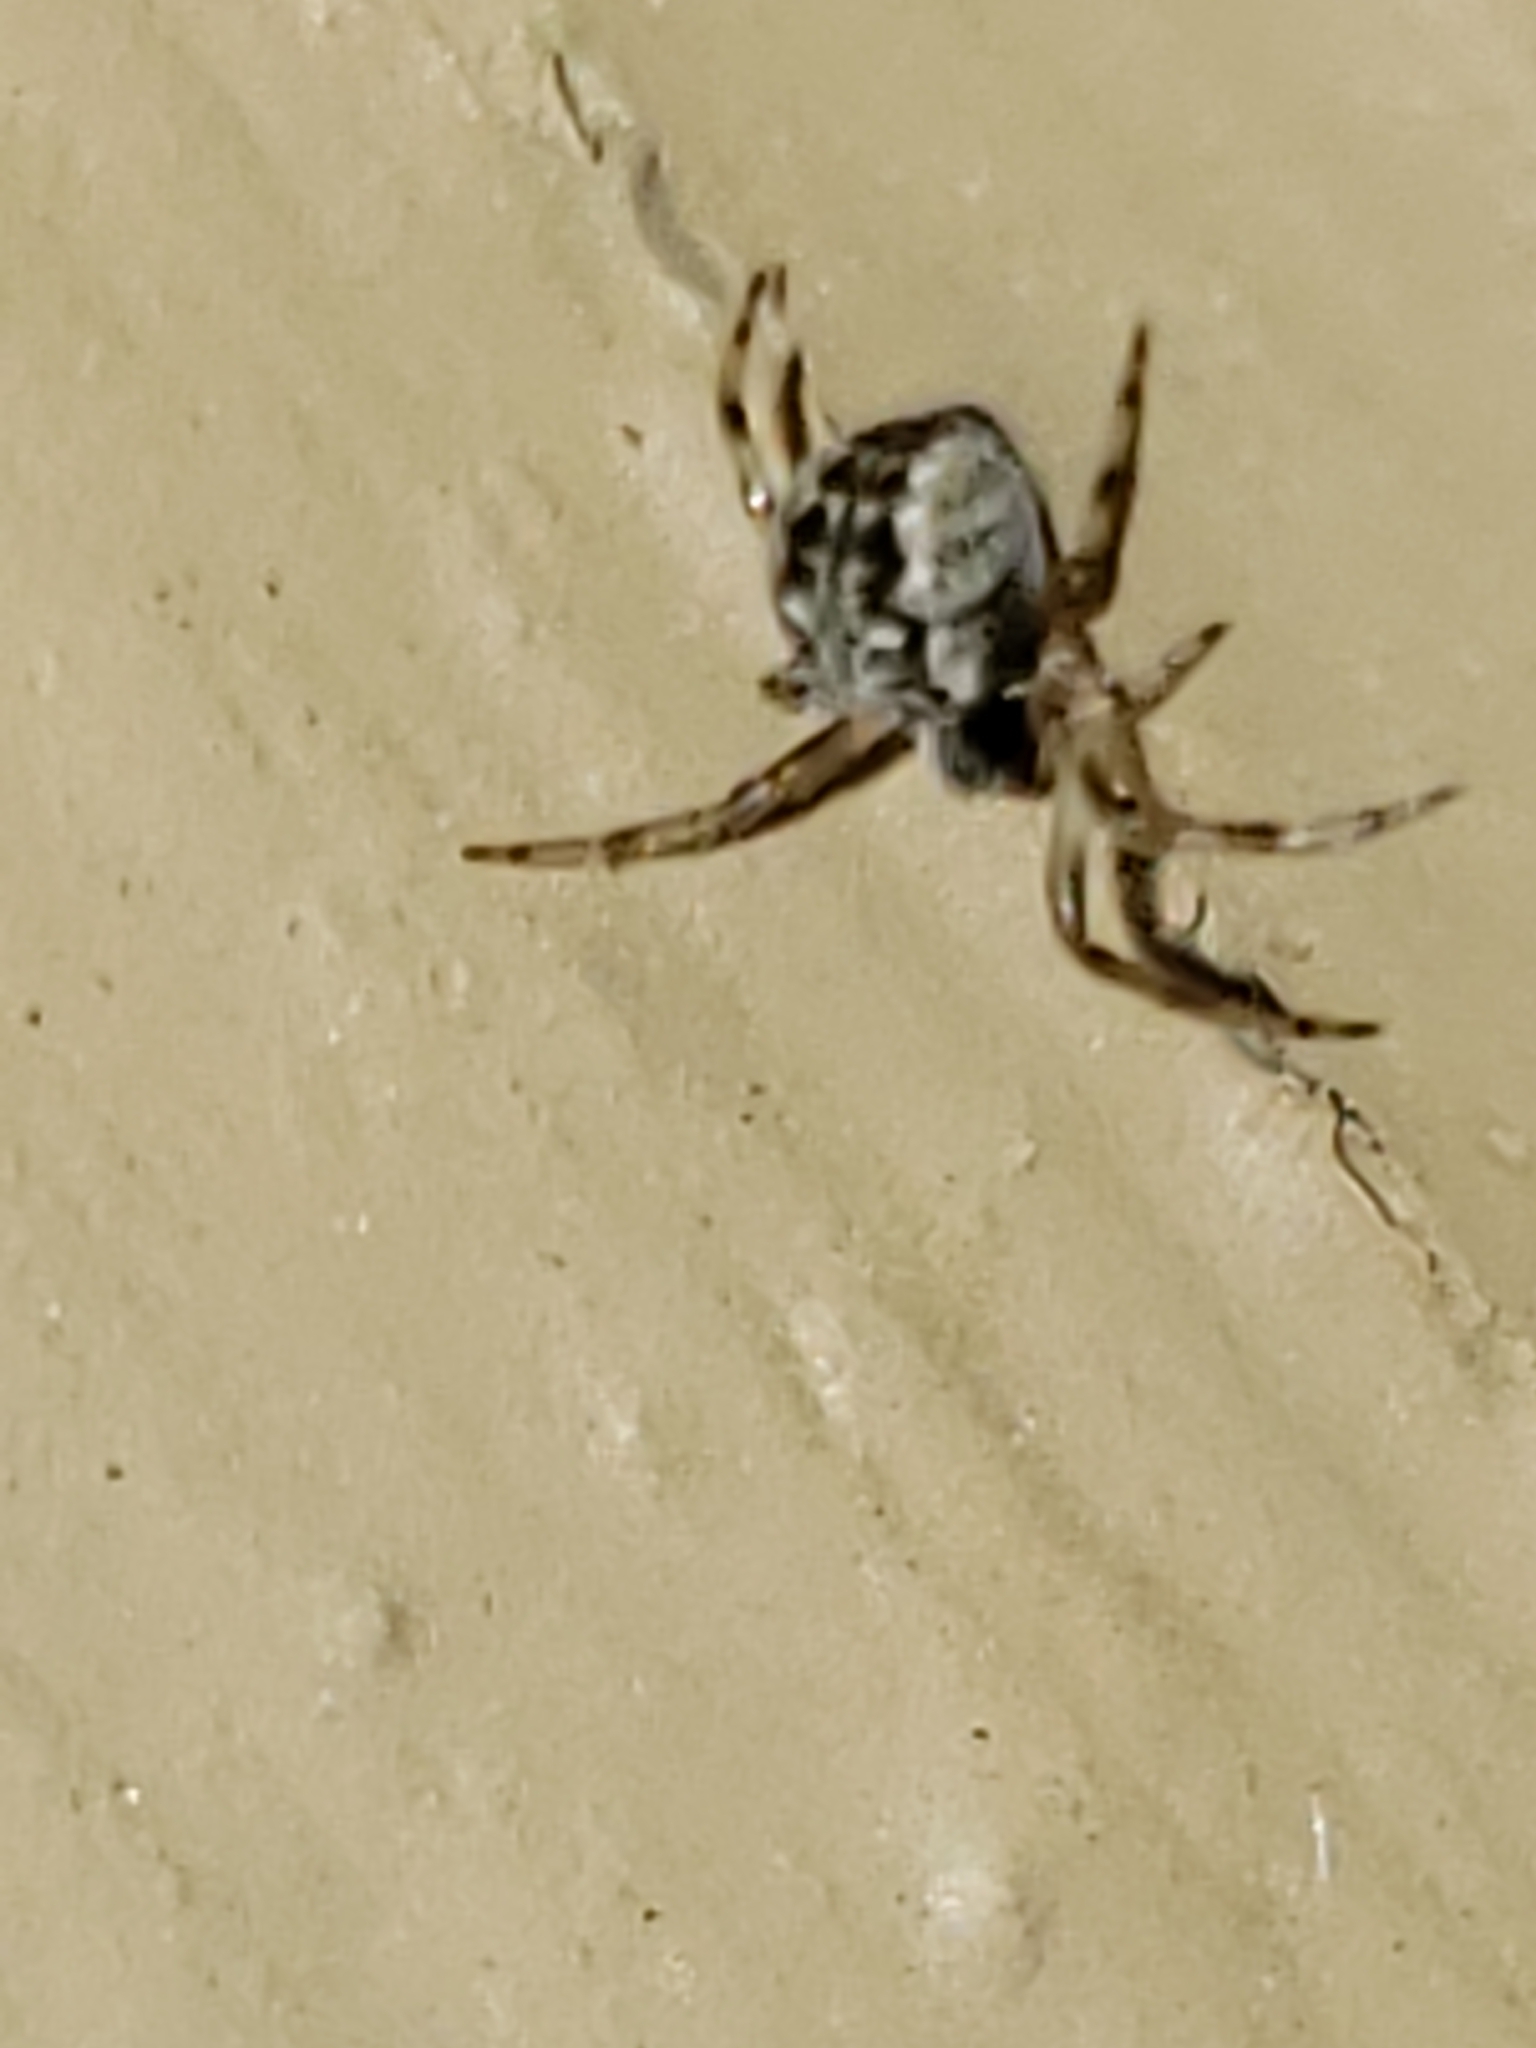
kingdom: Animalia
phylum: Arthropoda
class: Arachnida
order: Araneae
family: Araneidae
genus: Metepeira
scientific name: Metepeira labyrinthea
